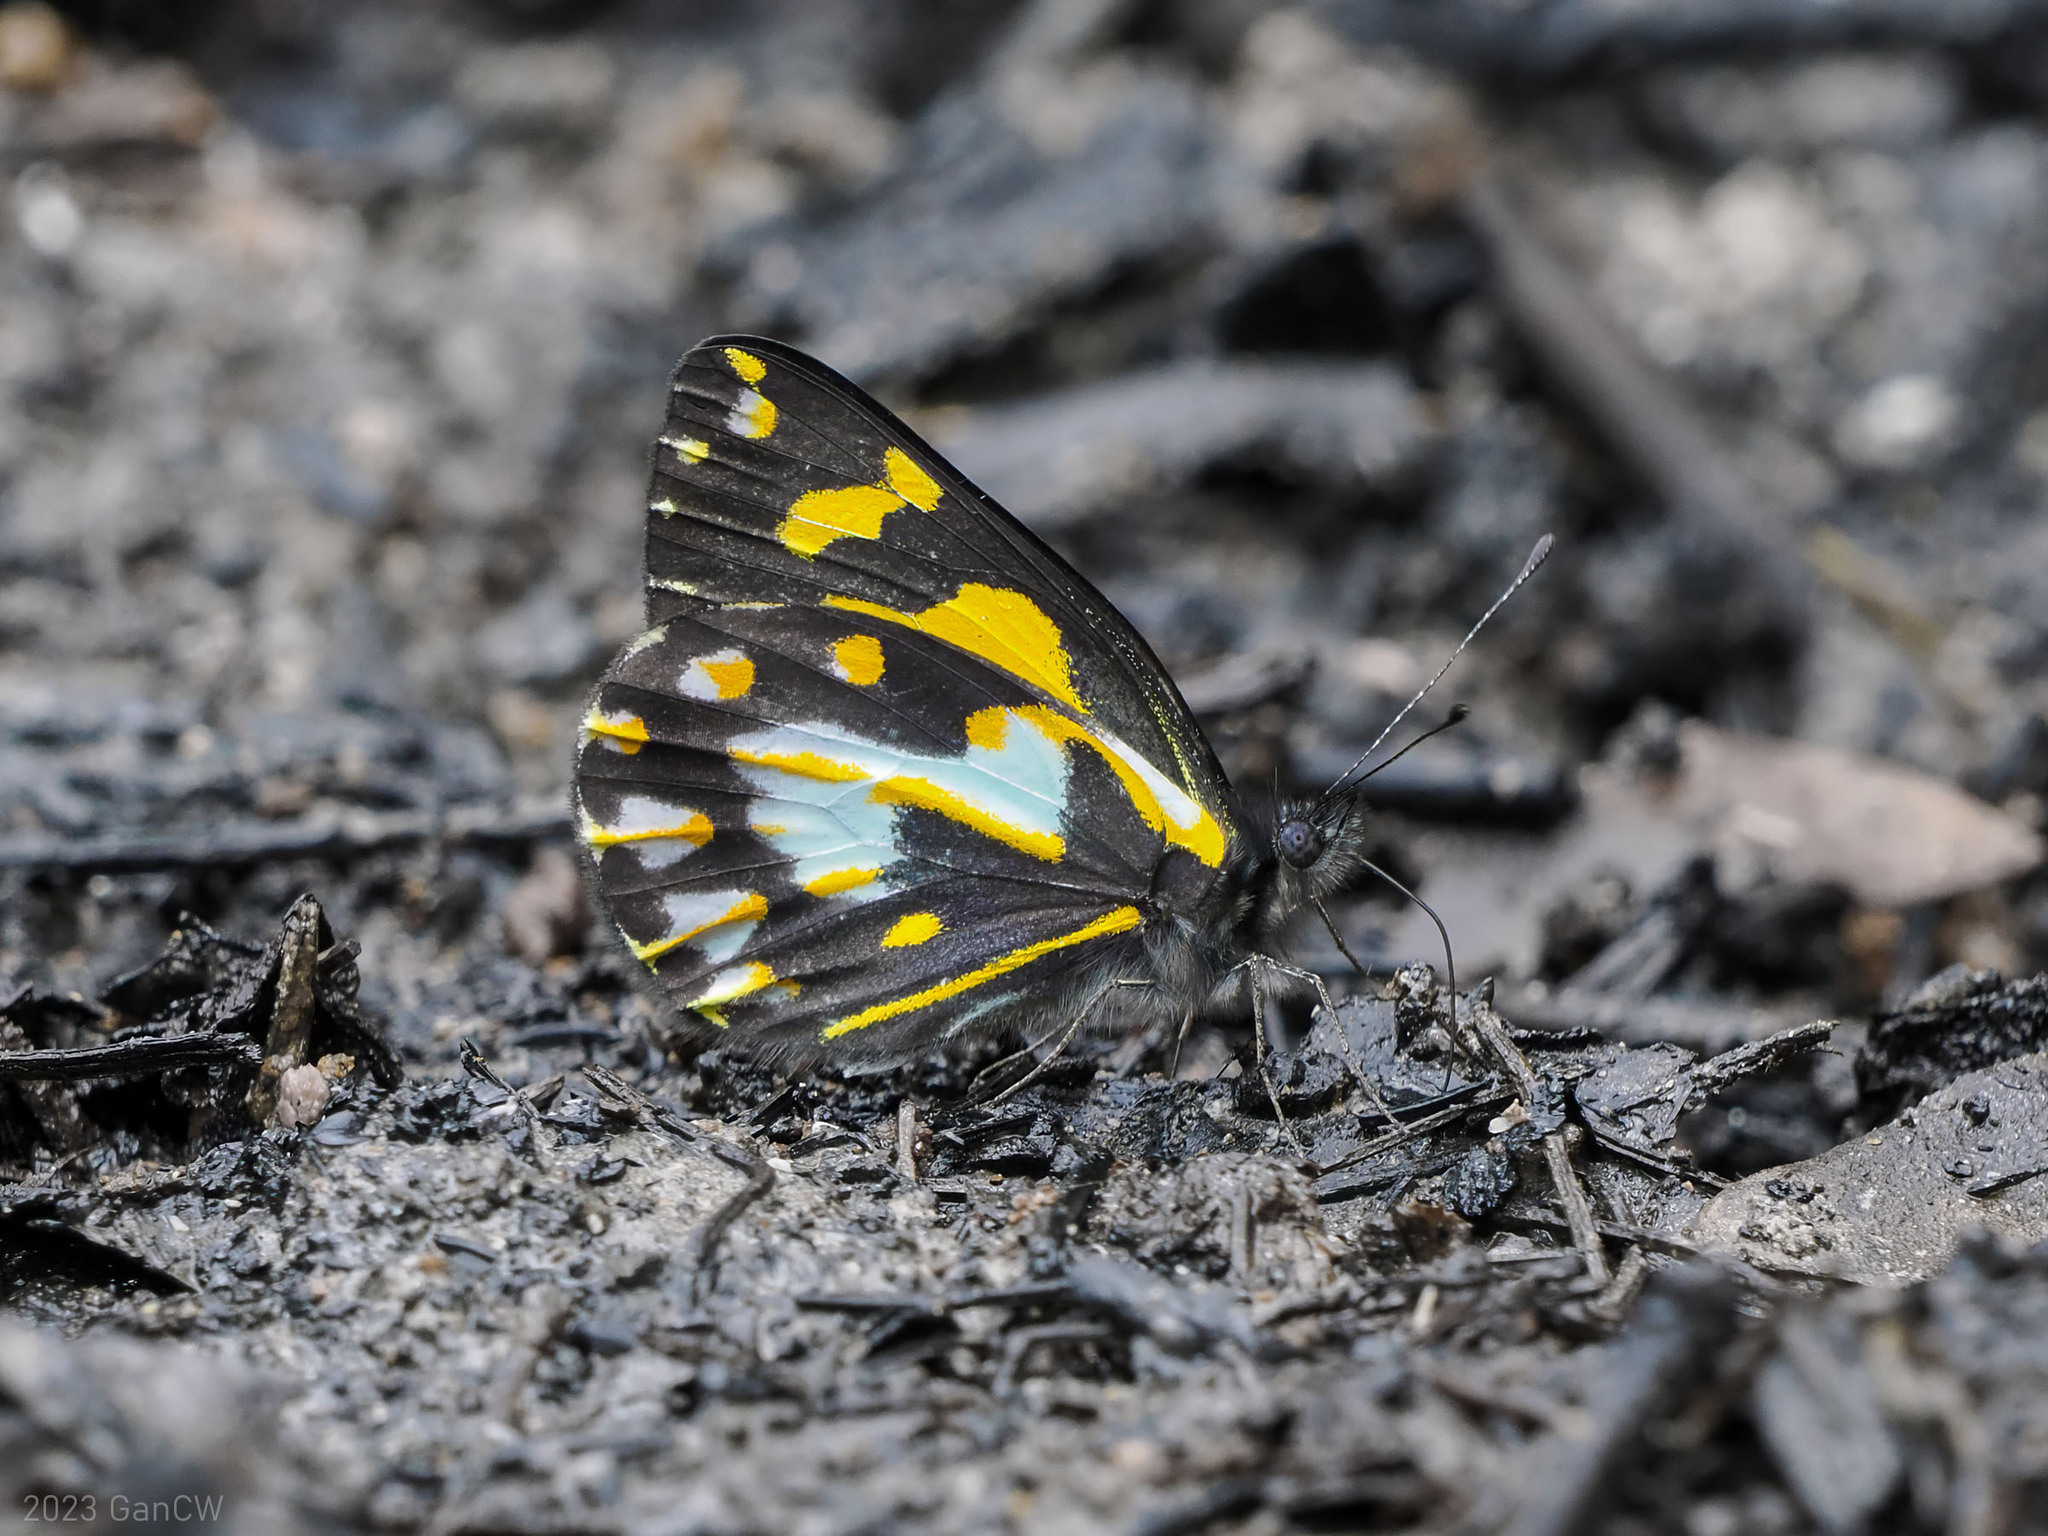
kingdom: Animalia
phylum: Arthropoda
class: Insecta
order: Lepidoptera
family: Pieridae
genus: Delias
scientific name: Delias toxopei
